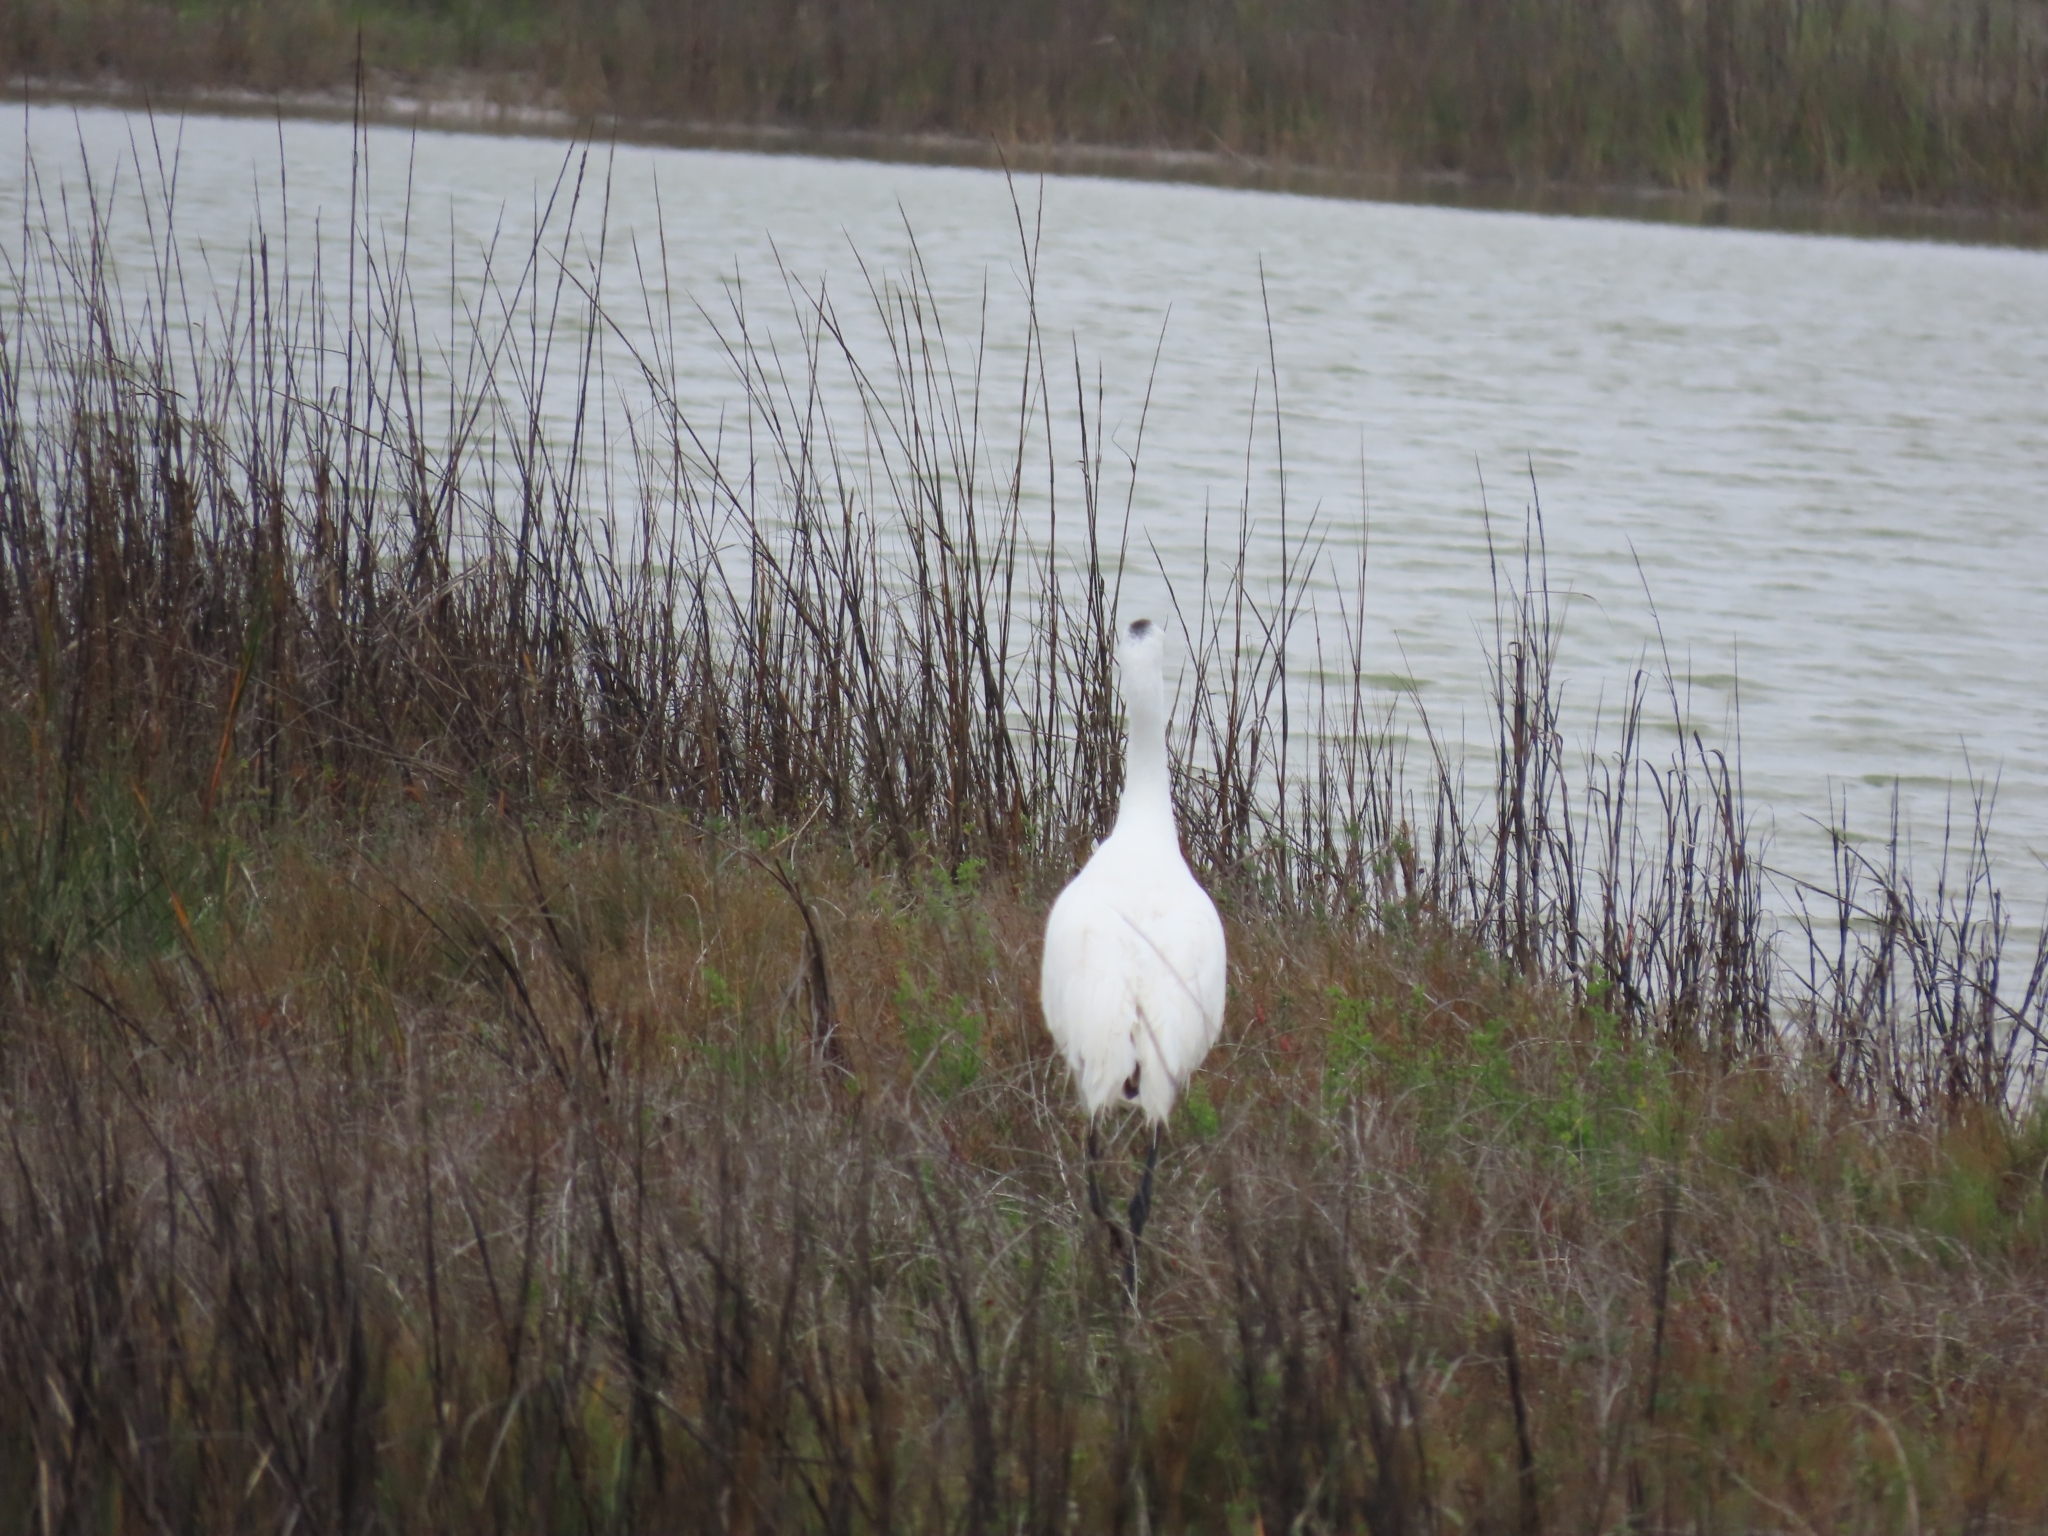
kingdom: Animalia
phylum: Chordata
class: Aves
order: Gruiformes
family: Gruidae
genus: Grus
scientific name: Grus americana
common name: Whooping crane
